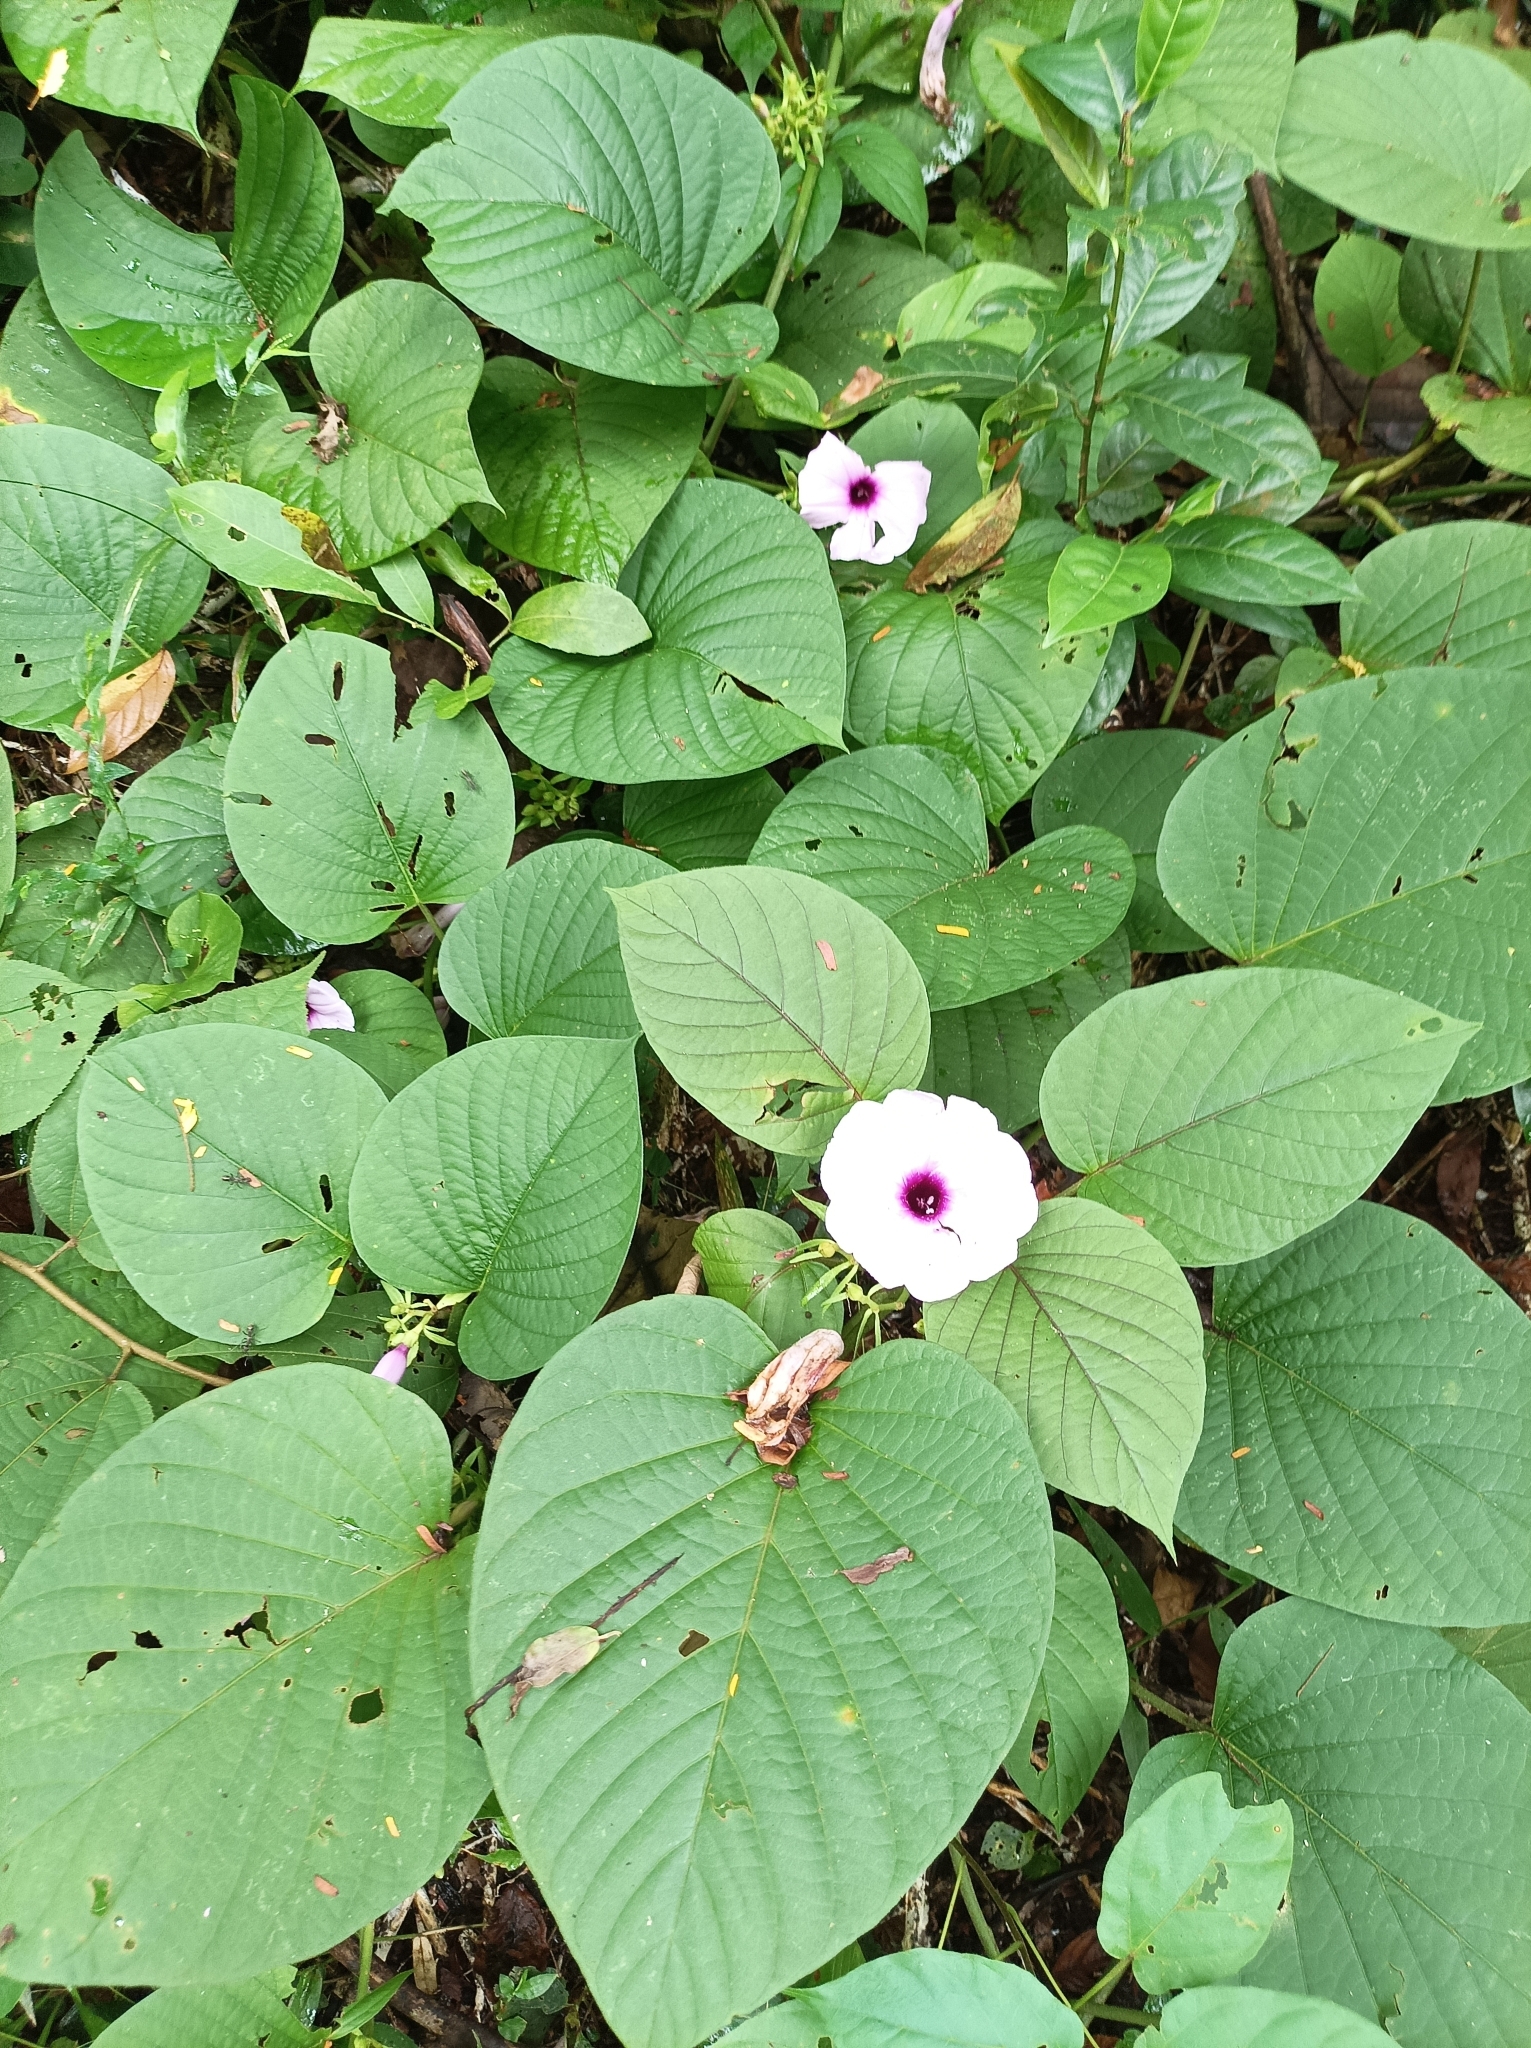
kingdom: Plantae
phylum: Tracheophyta
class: Magnoliopsida
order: Solanales
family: Convolvulaceae
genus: Argyreia
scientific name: Argyreia nervosa
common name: Elephant creeper
